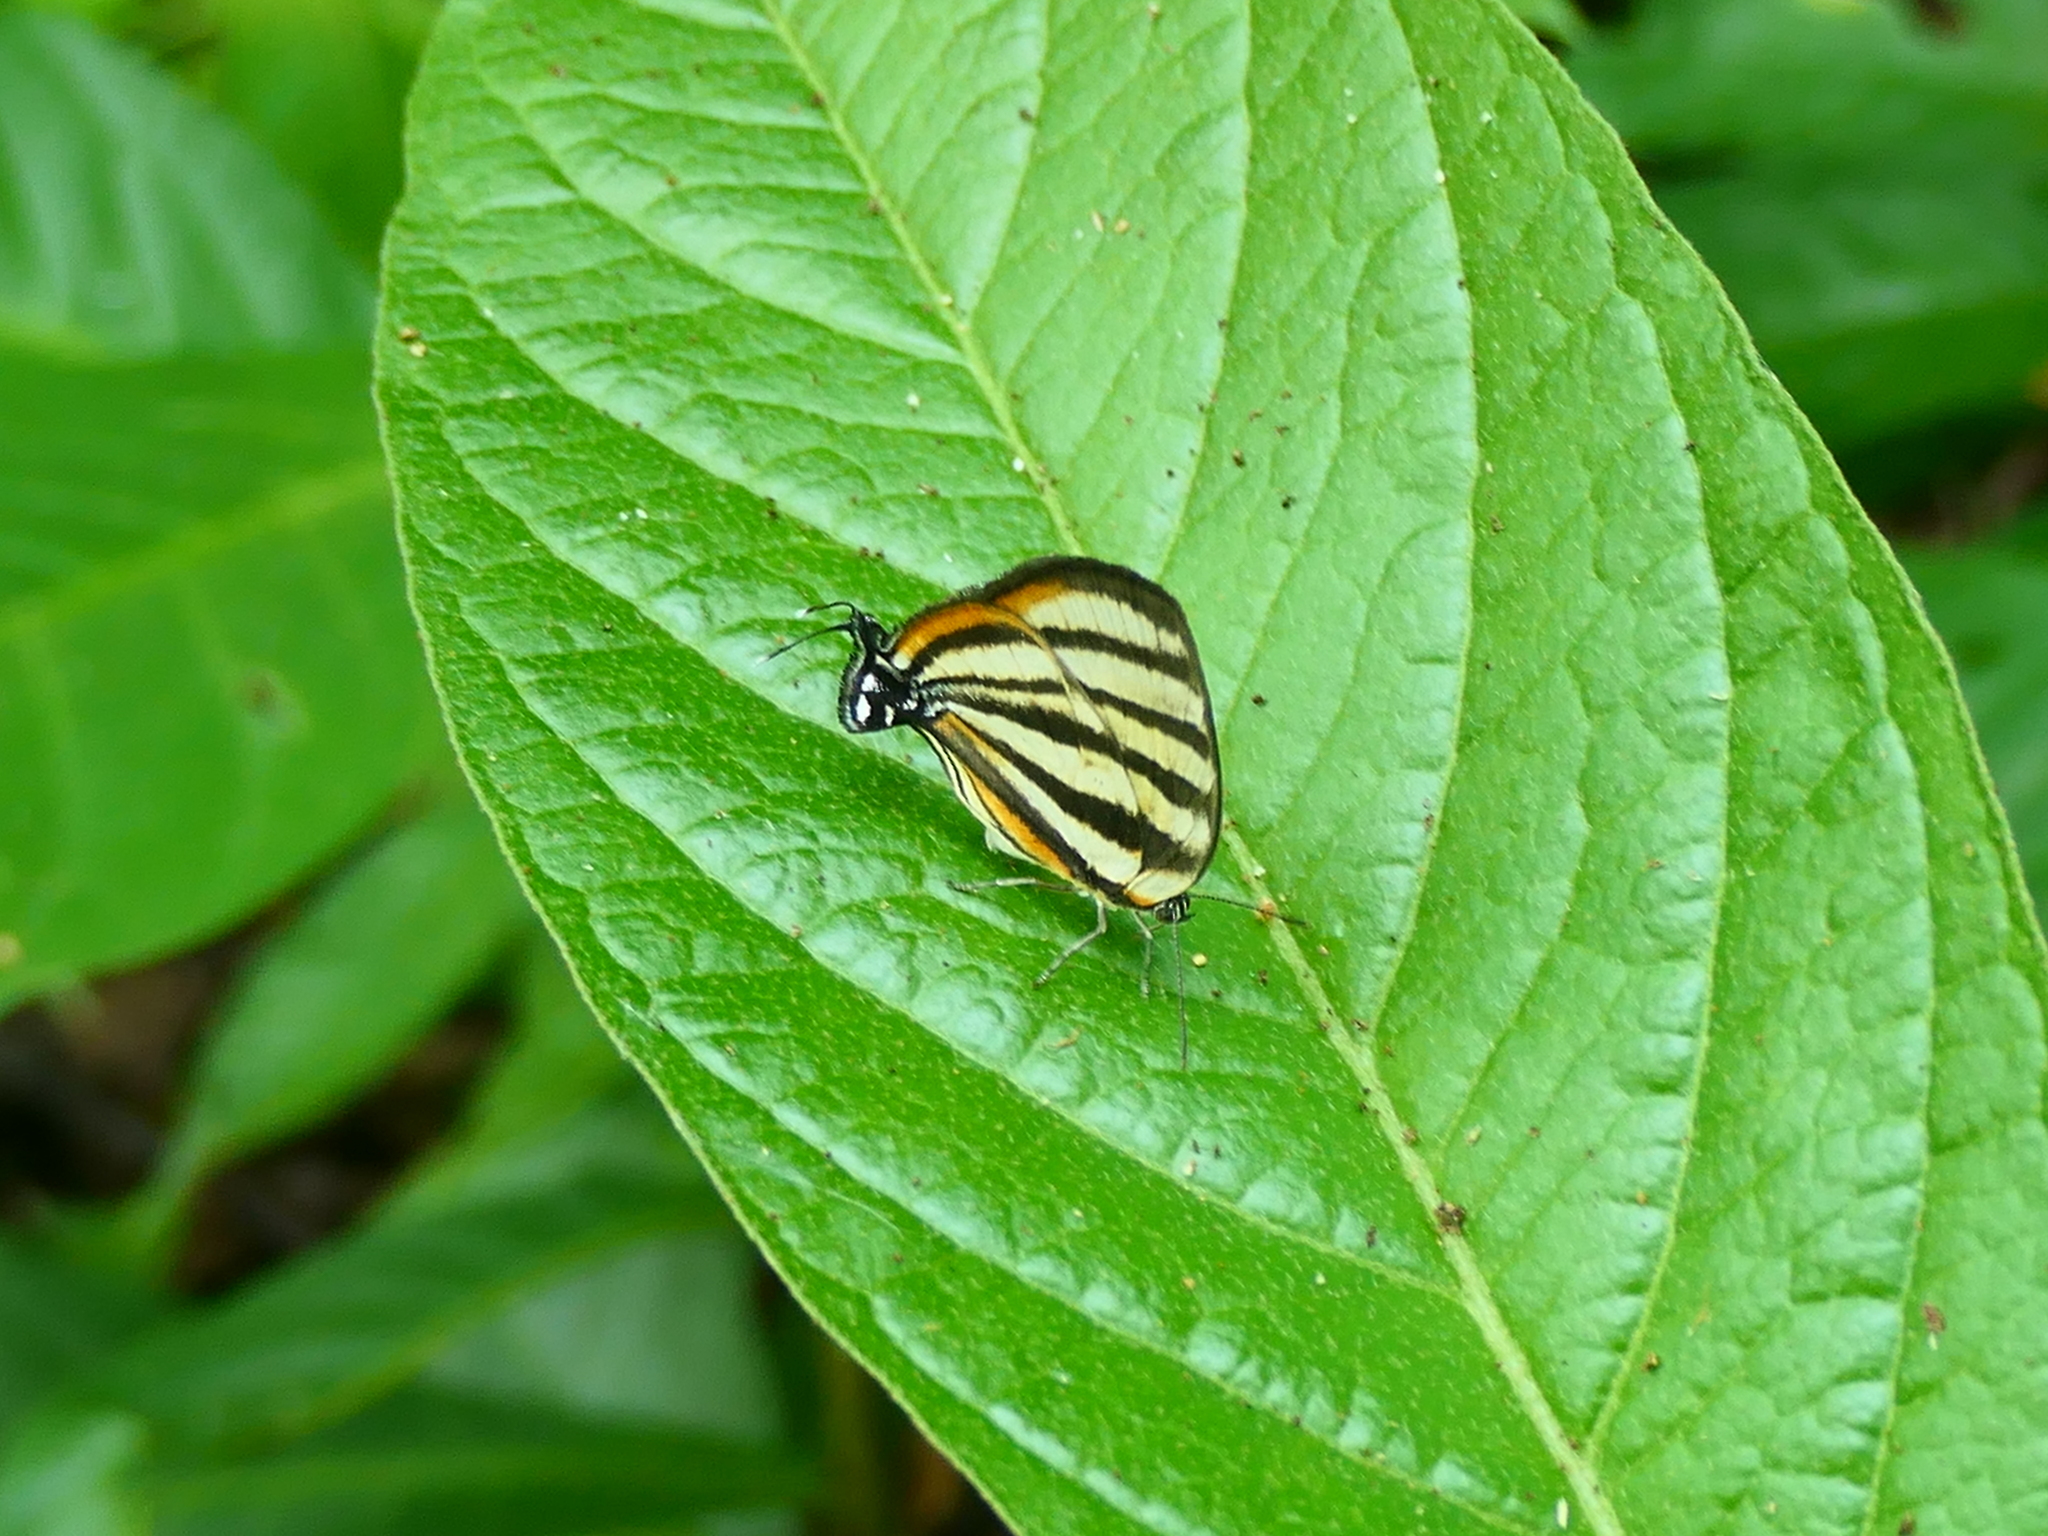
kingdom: Animalia
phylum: Arthropoda
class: Insecta
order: Lepidoptera
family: Lycaenidae
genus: Arawacus
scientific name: Arawacus separata
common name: Separated stripestreak
